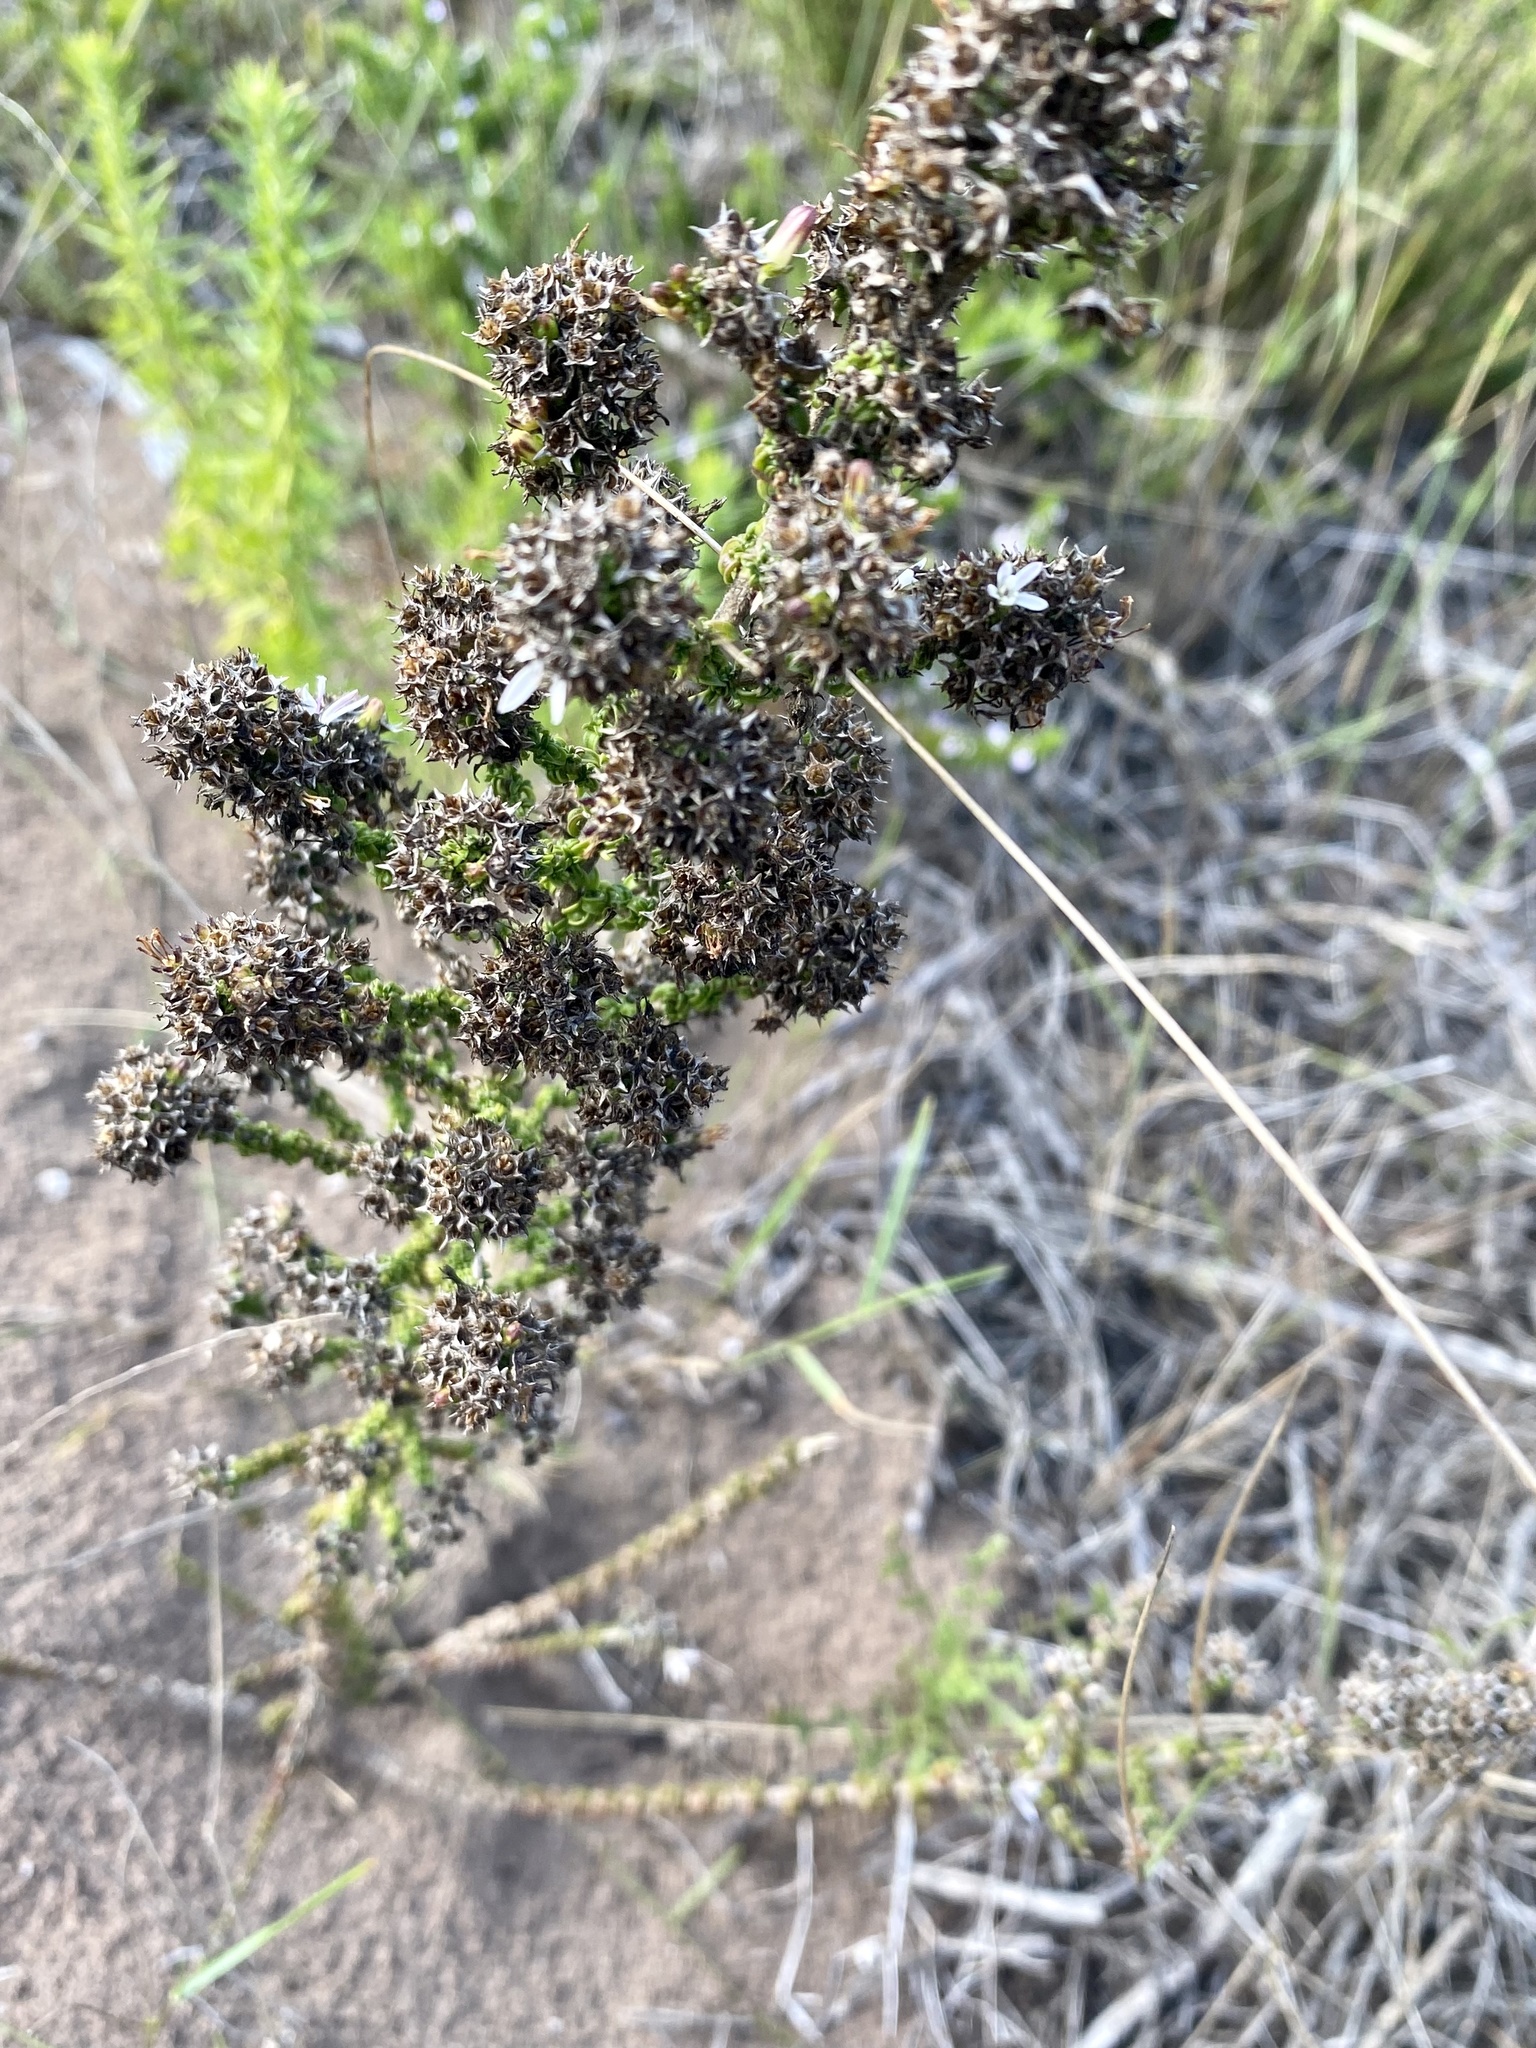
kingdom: Plantae
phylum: Tracheophyta
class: Magnoliopsida
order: Asterales
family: Campanulaceae
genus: Wahlenbergia
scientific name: Wahlenbergia desmantha
